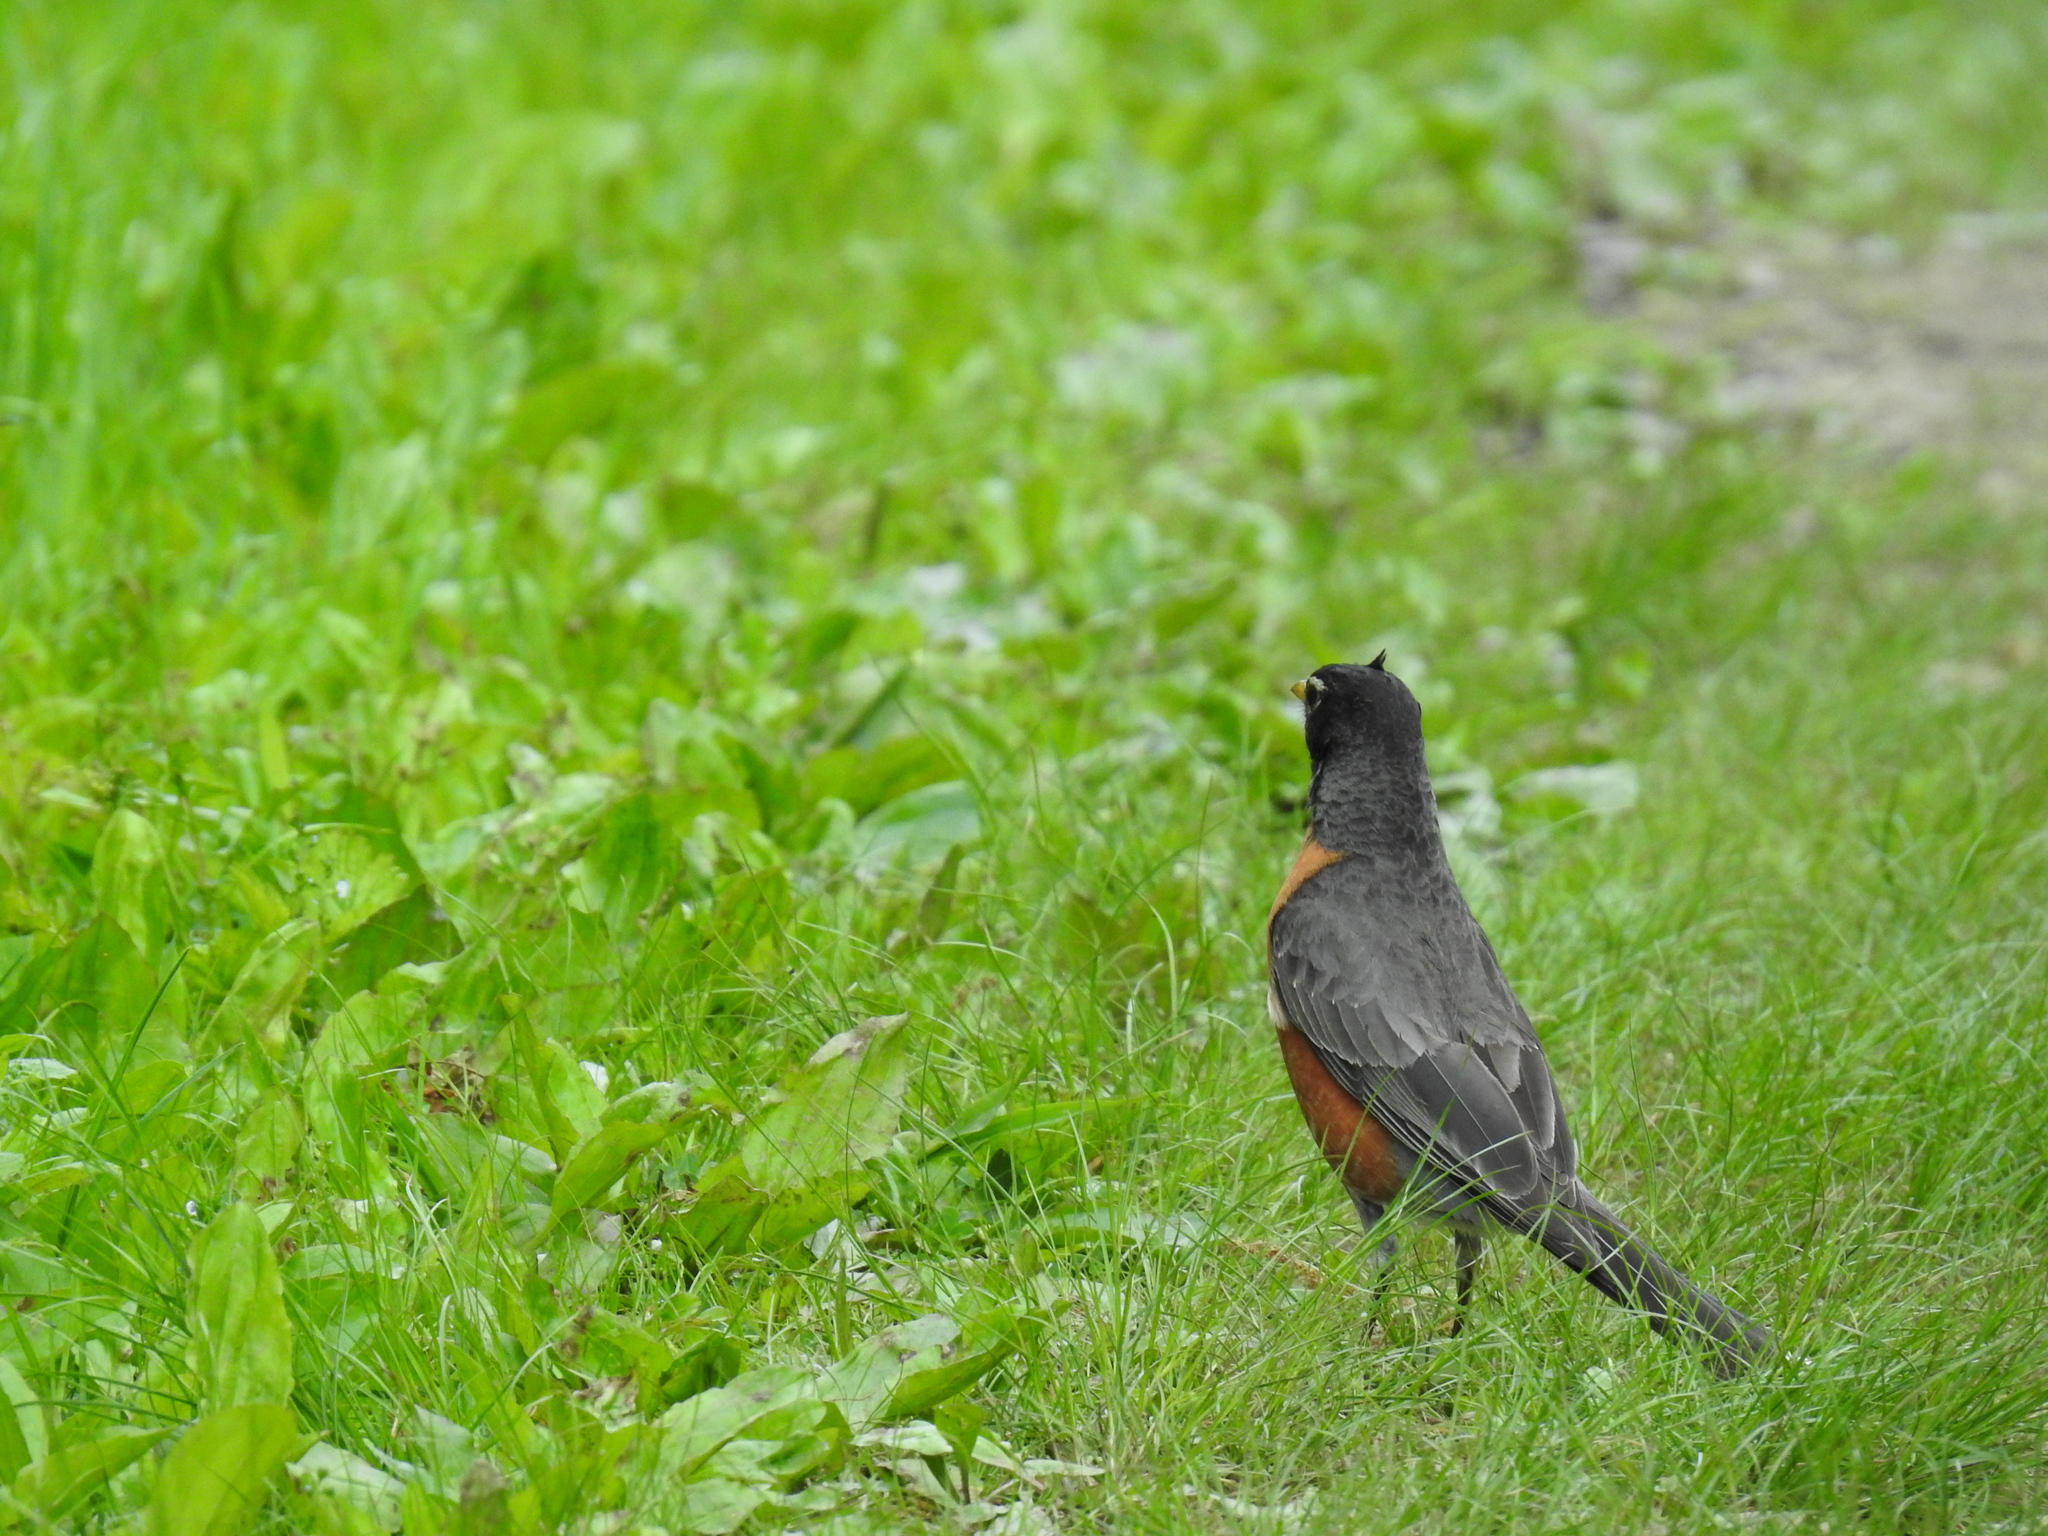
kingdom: Animalia
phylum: Chordata
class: Aves
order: Passeriformes
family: Turdidae
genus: Turdus
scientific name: Turdus migratorius
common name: American robin
